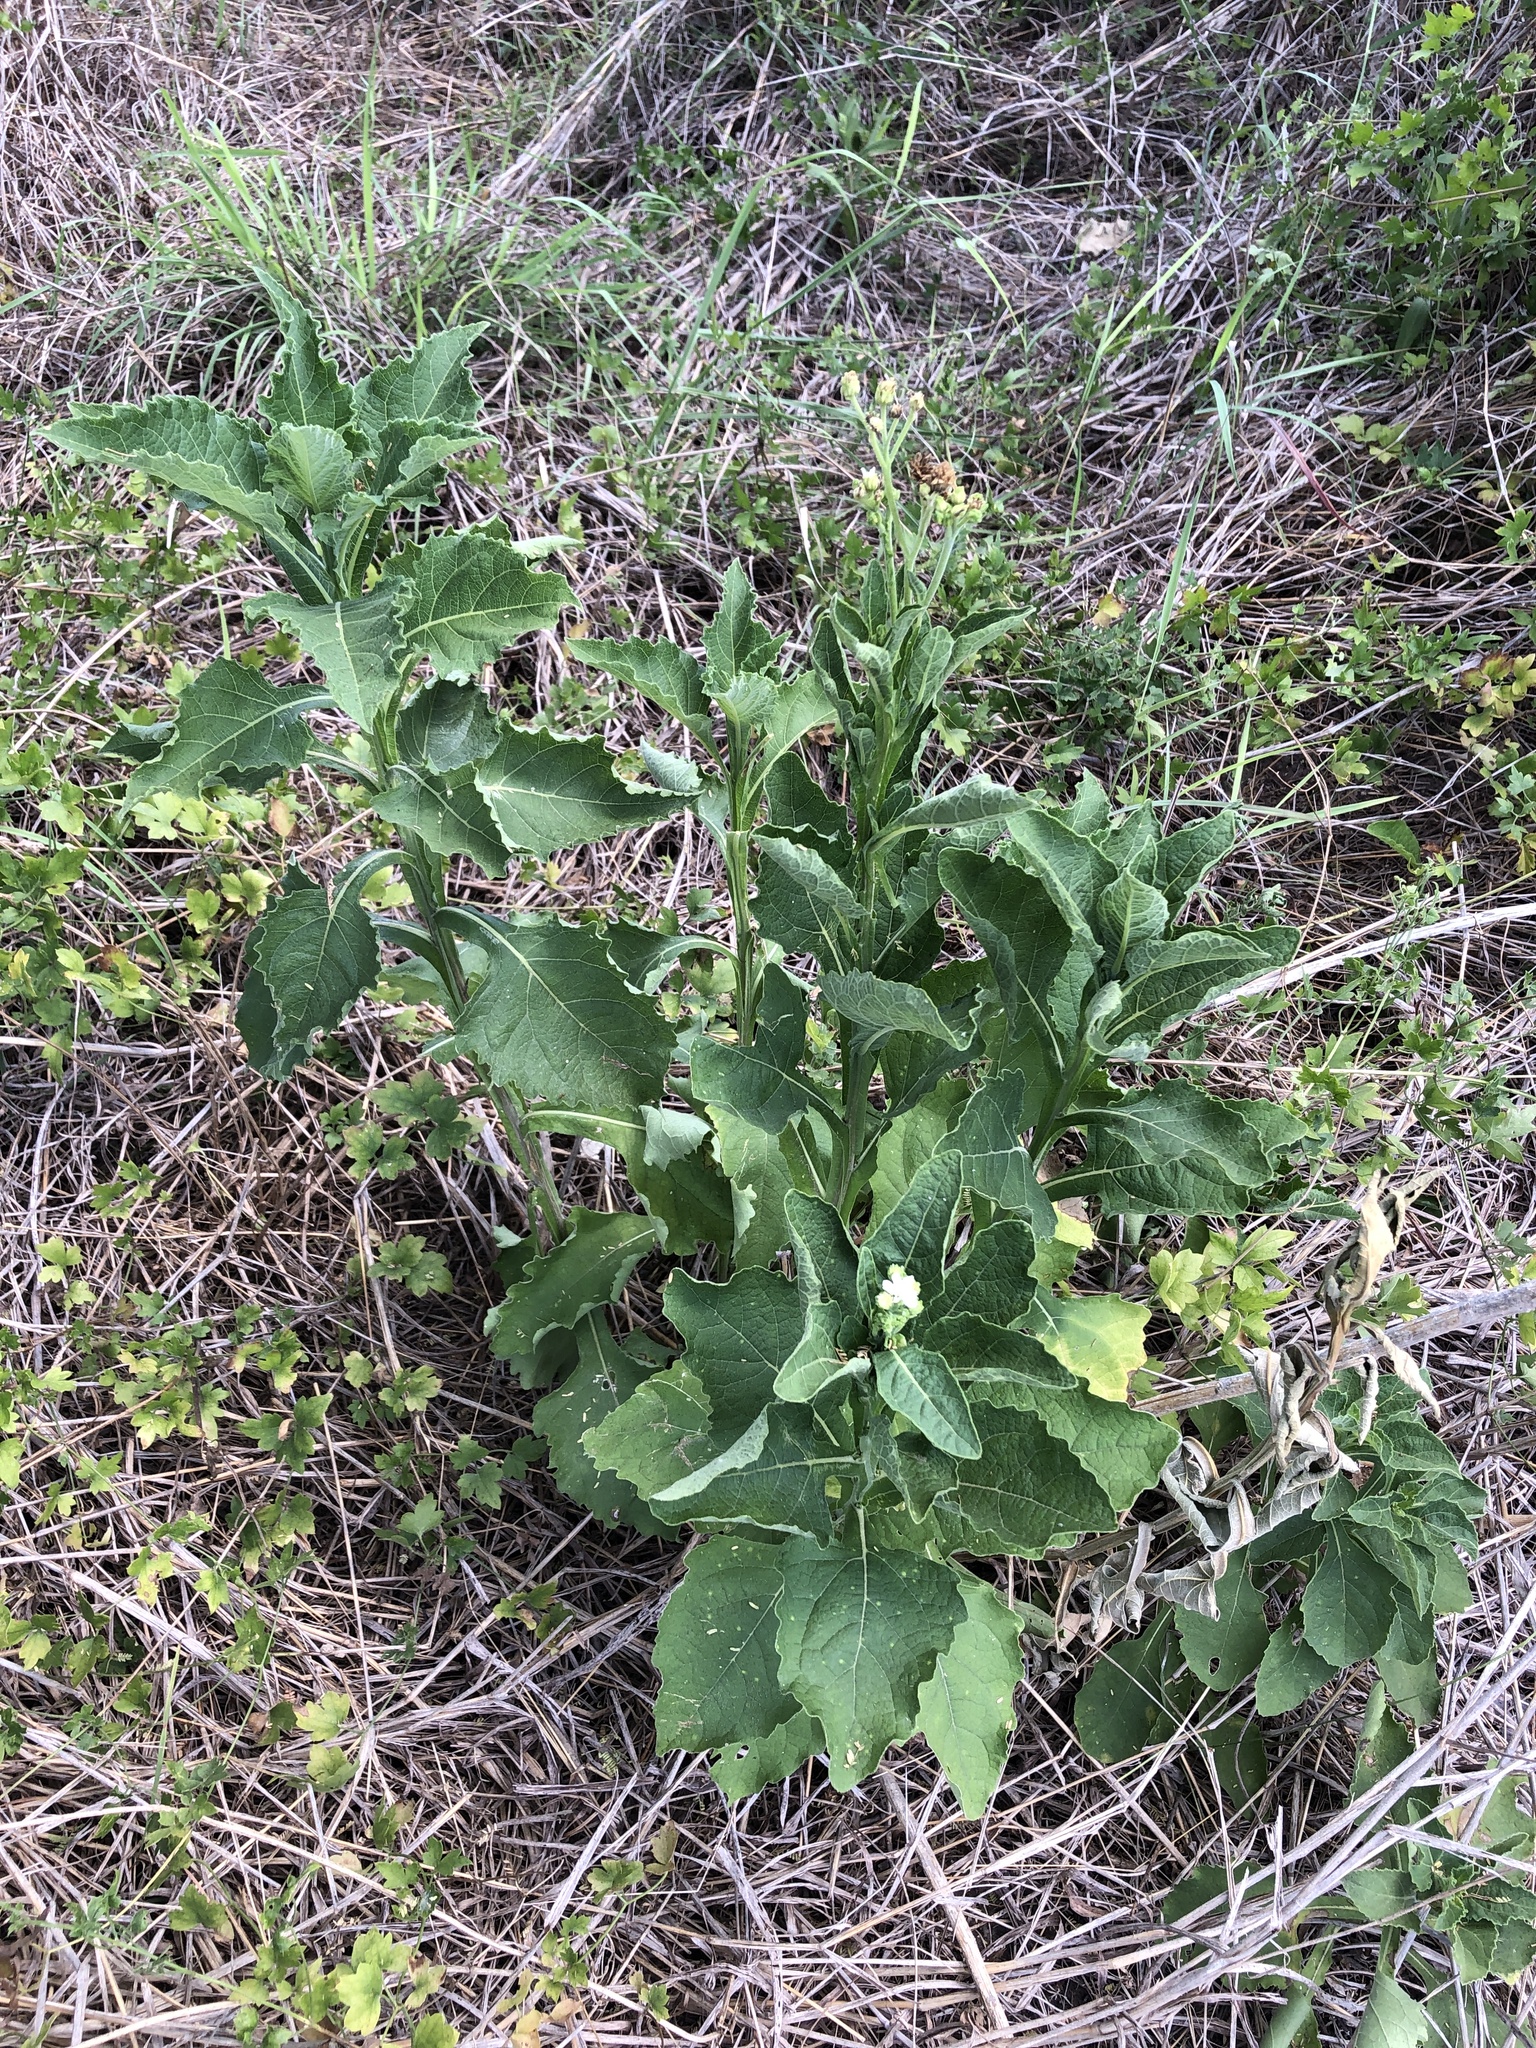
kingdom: Plantae
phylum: Tracheophyta
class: Magnoliopsida
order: Asterales
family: Asteraceae
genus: Verbesina
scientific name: Verbesina microptera
